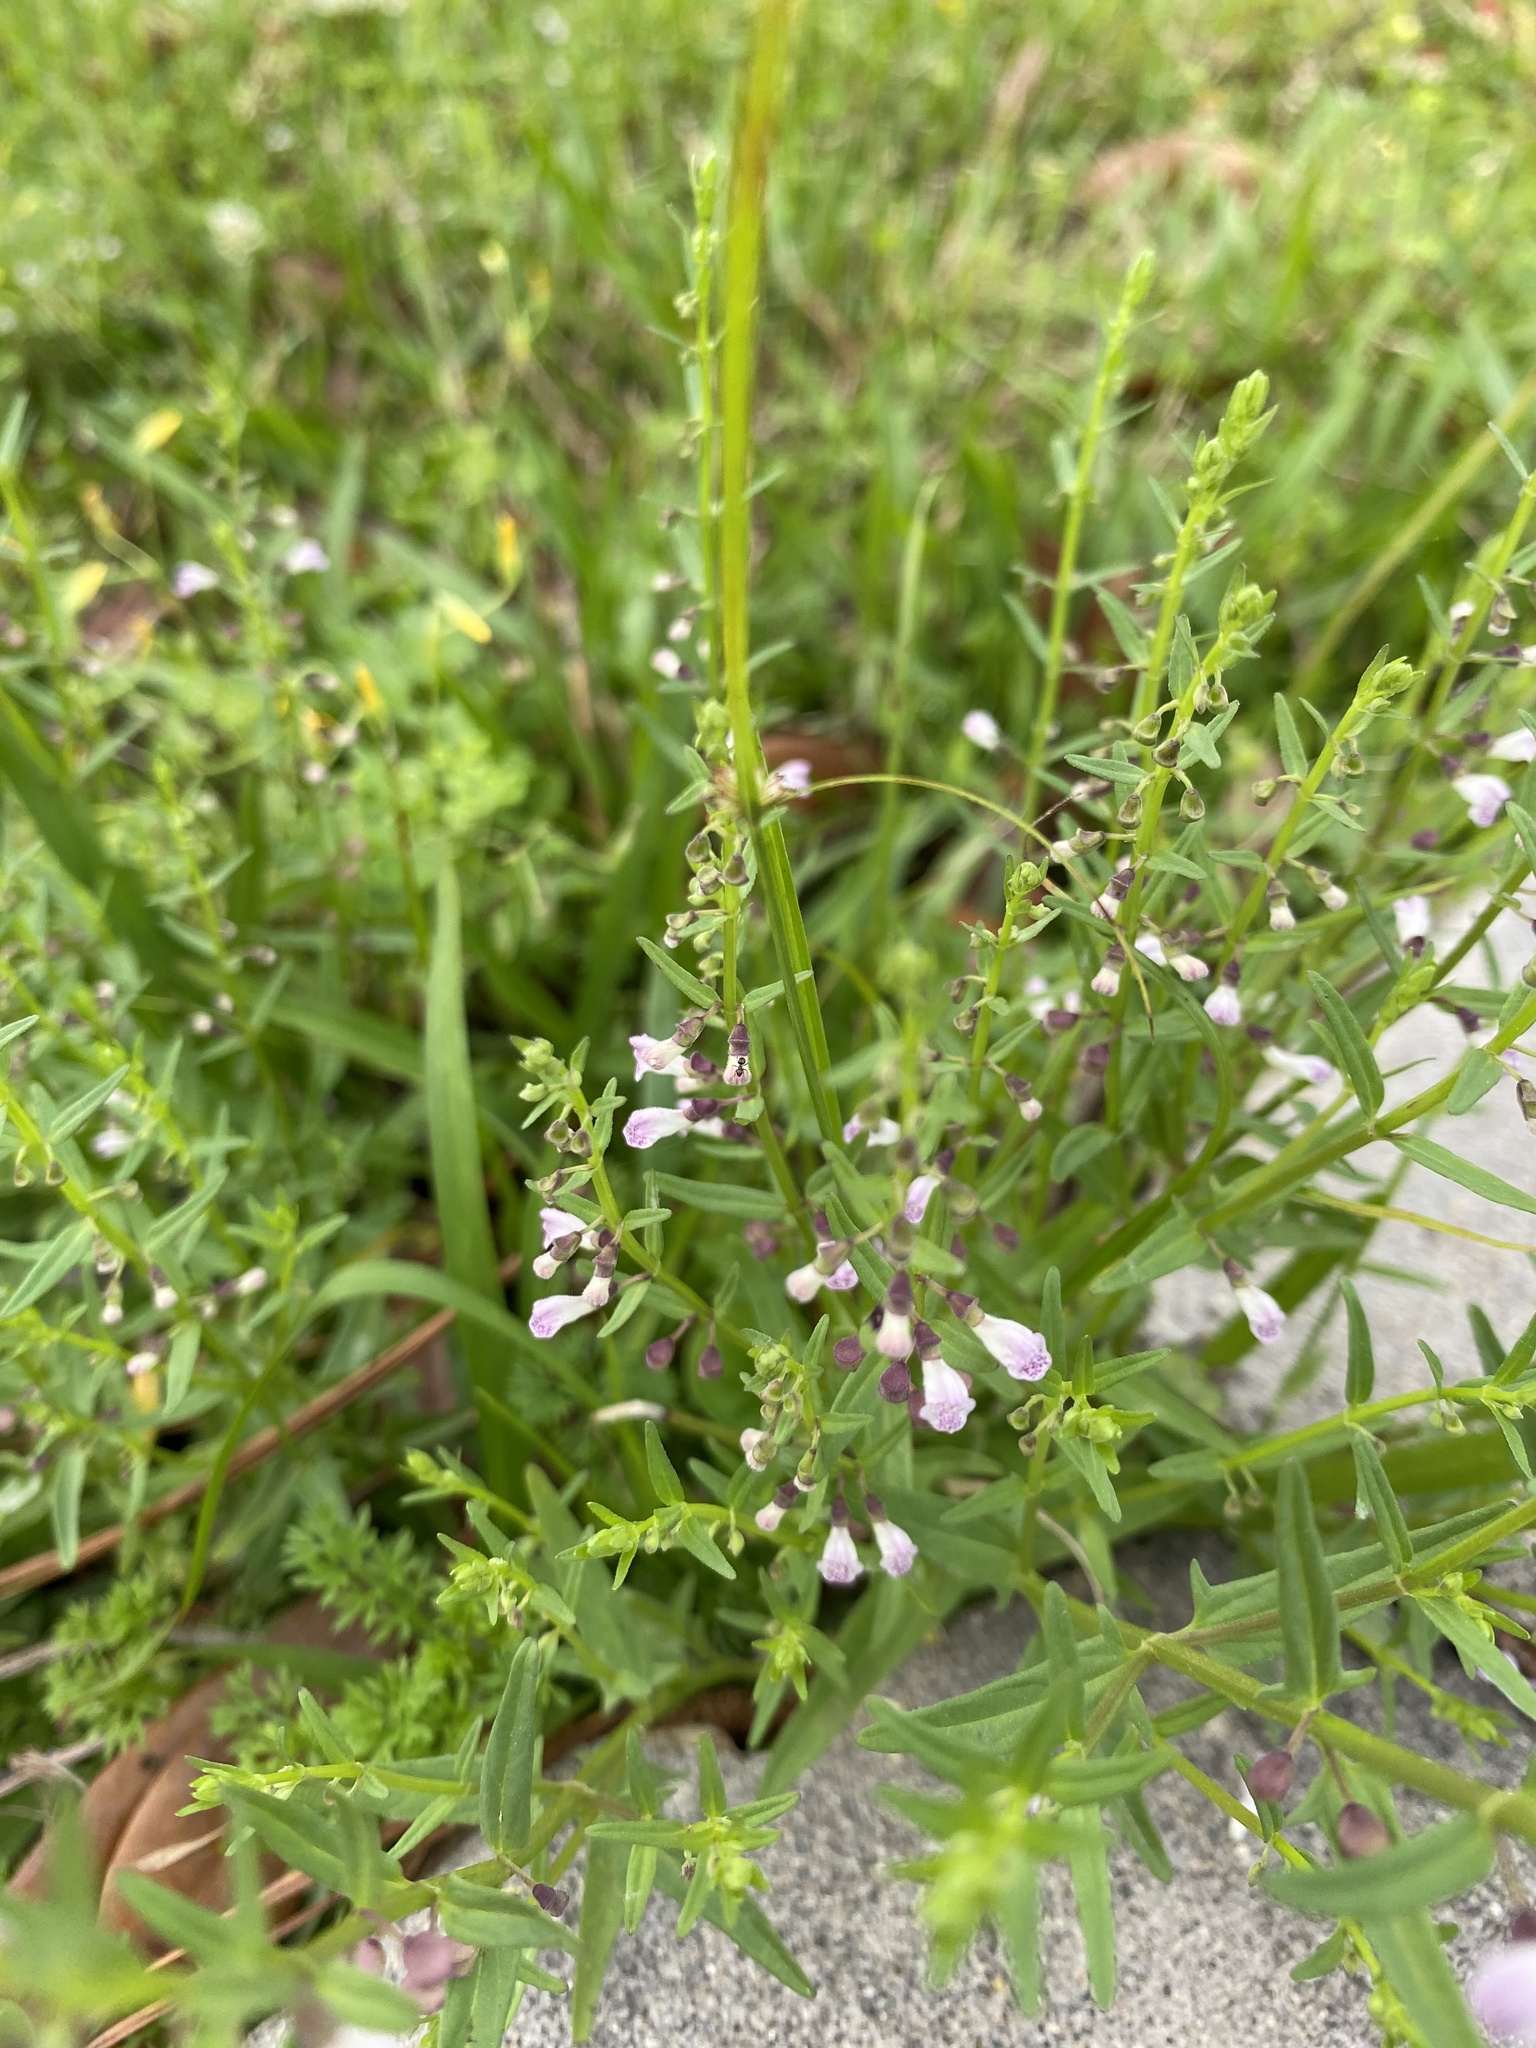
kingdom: Plantae
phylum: Tracheophyta
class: Magnoliopsida
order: Lamiales
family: Lamiaceae
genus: Scutellaria
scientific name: Scutellaria racemosa
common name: South american skullcap
